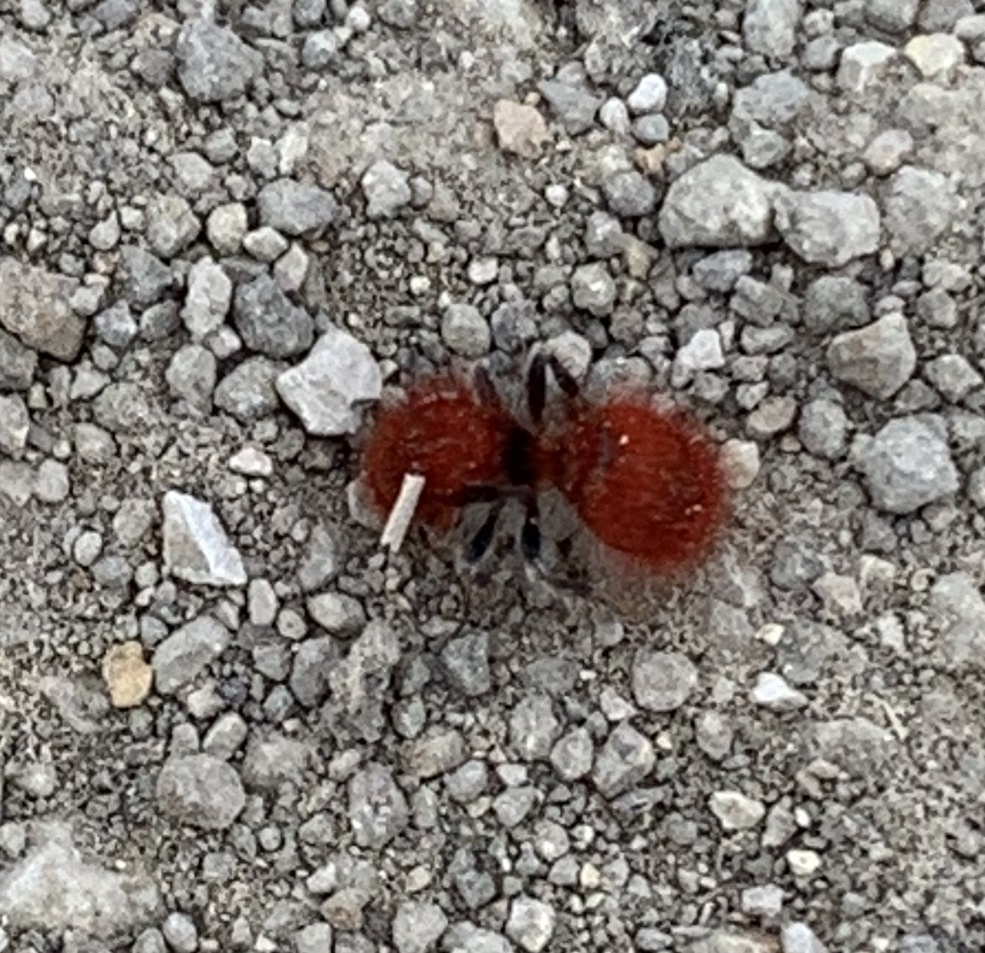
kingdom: Animalia
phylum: Arthropoda
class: Insecta
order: Hymenoptera
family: Mutillidae
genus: Sphaeropthalma
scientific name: Sphaeropthalma unicolor
